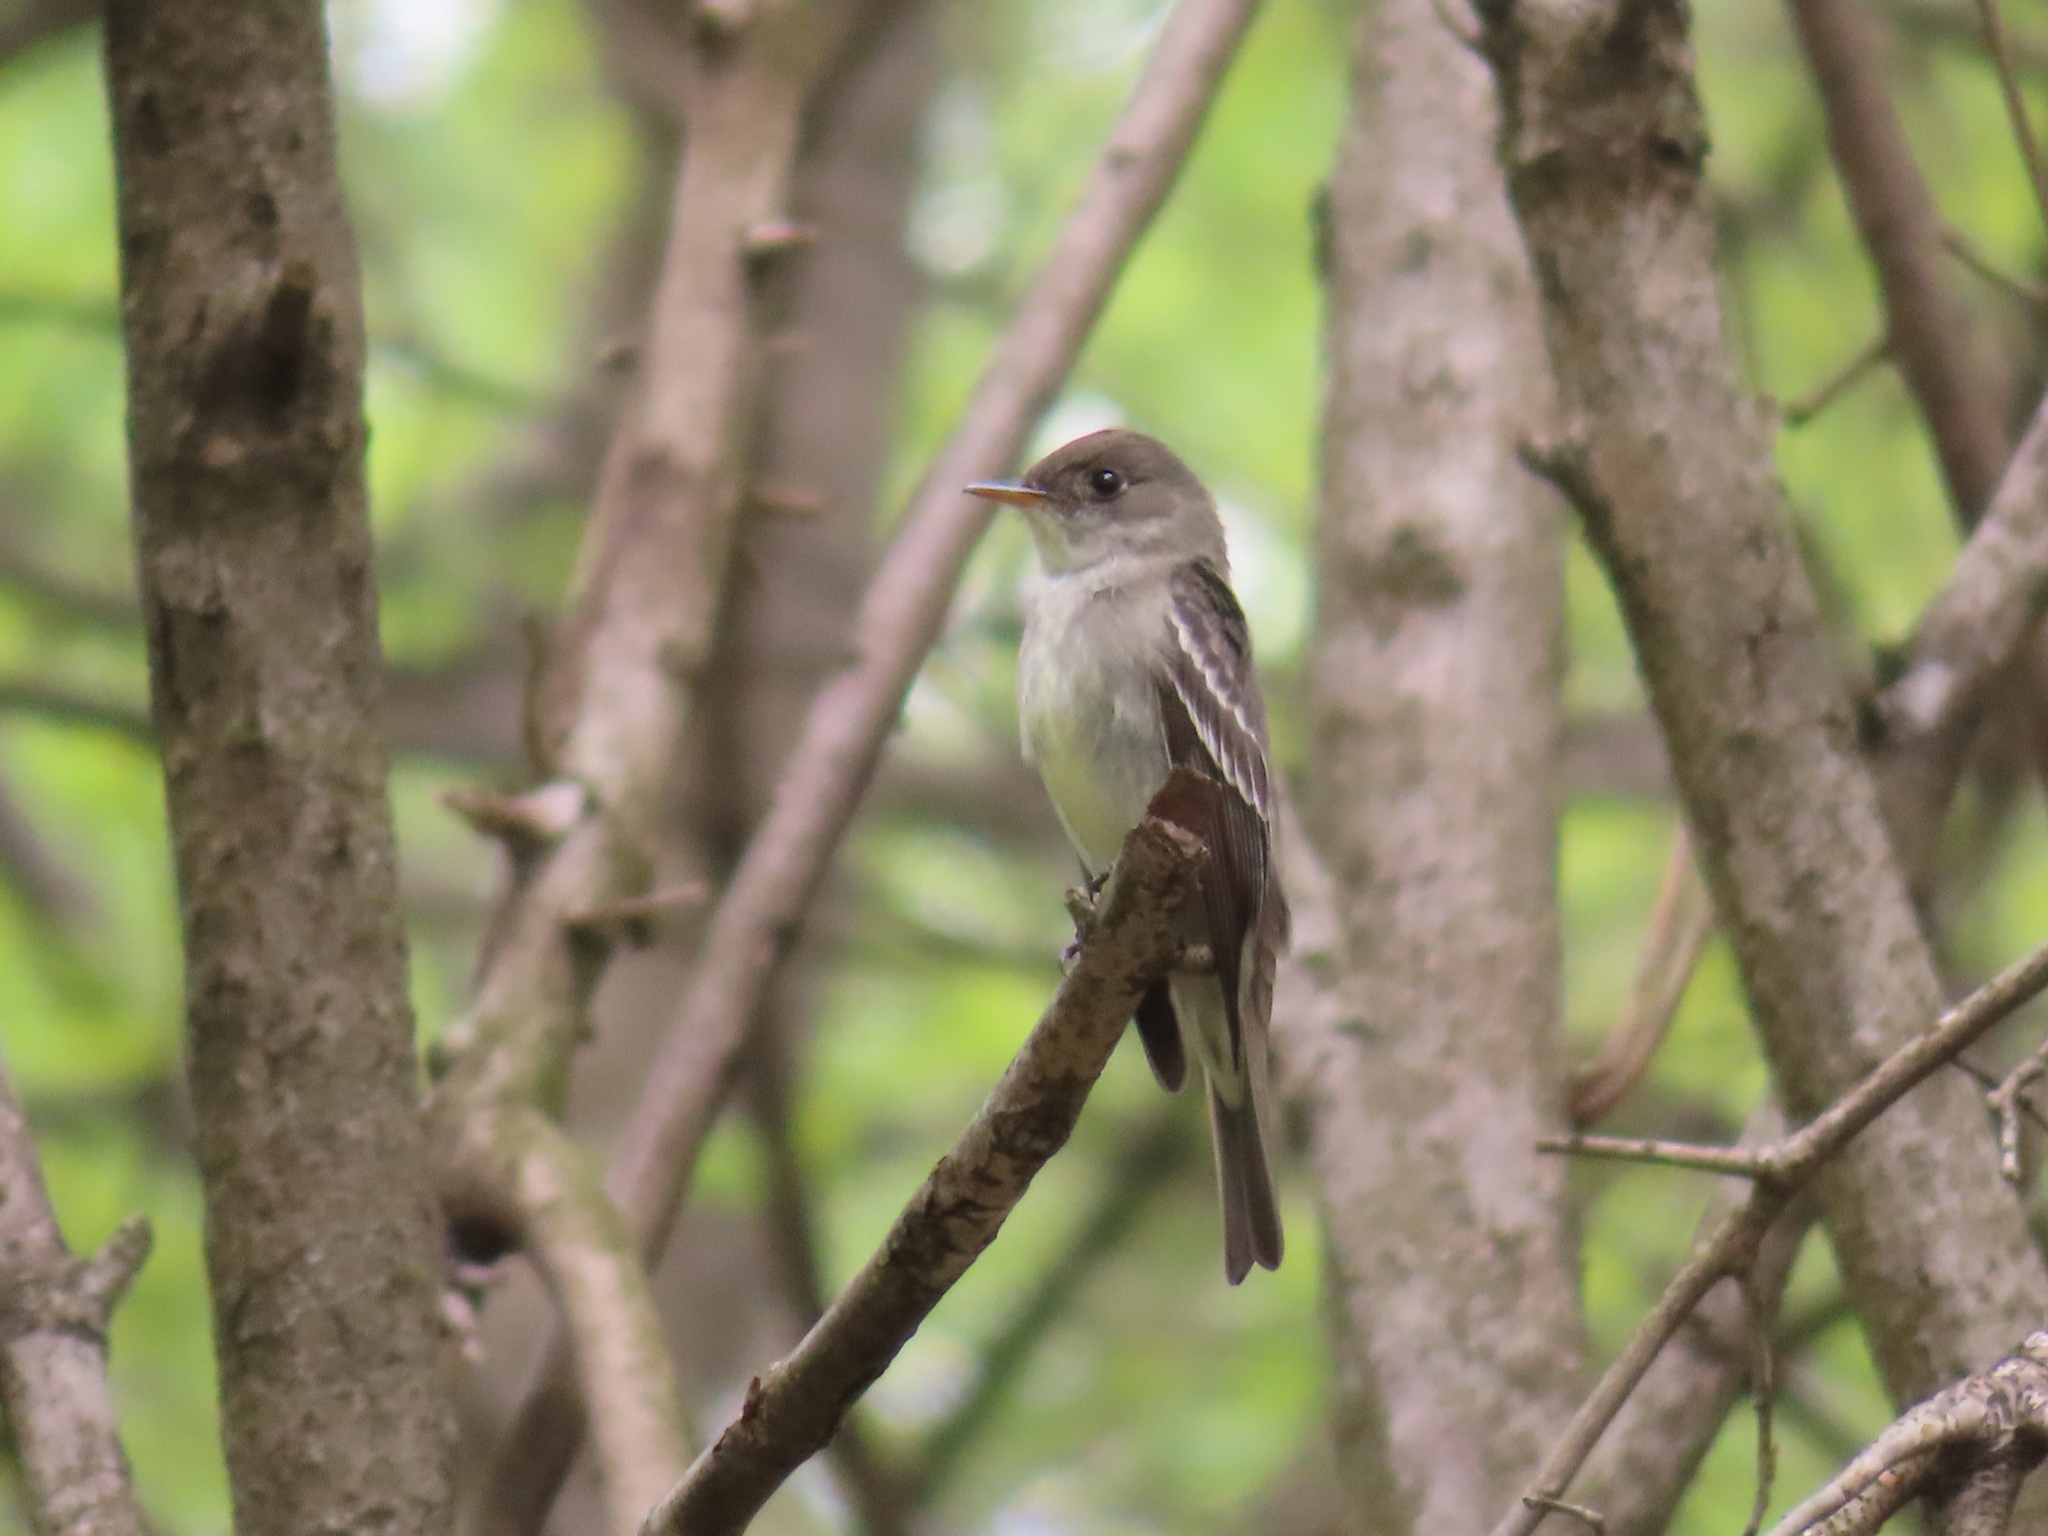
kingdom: Animalia
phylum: Chordata
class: Aves
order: Passeriformes
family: Tyrannidae
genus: Contopus
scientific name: Contopus virens
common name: Eastern wood-pewee
